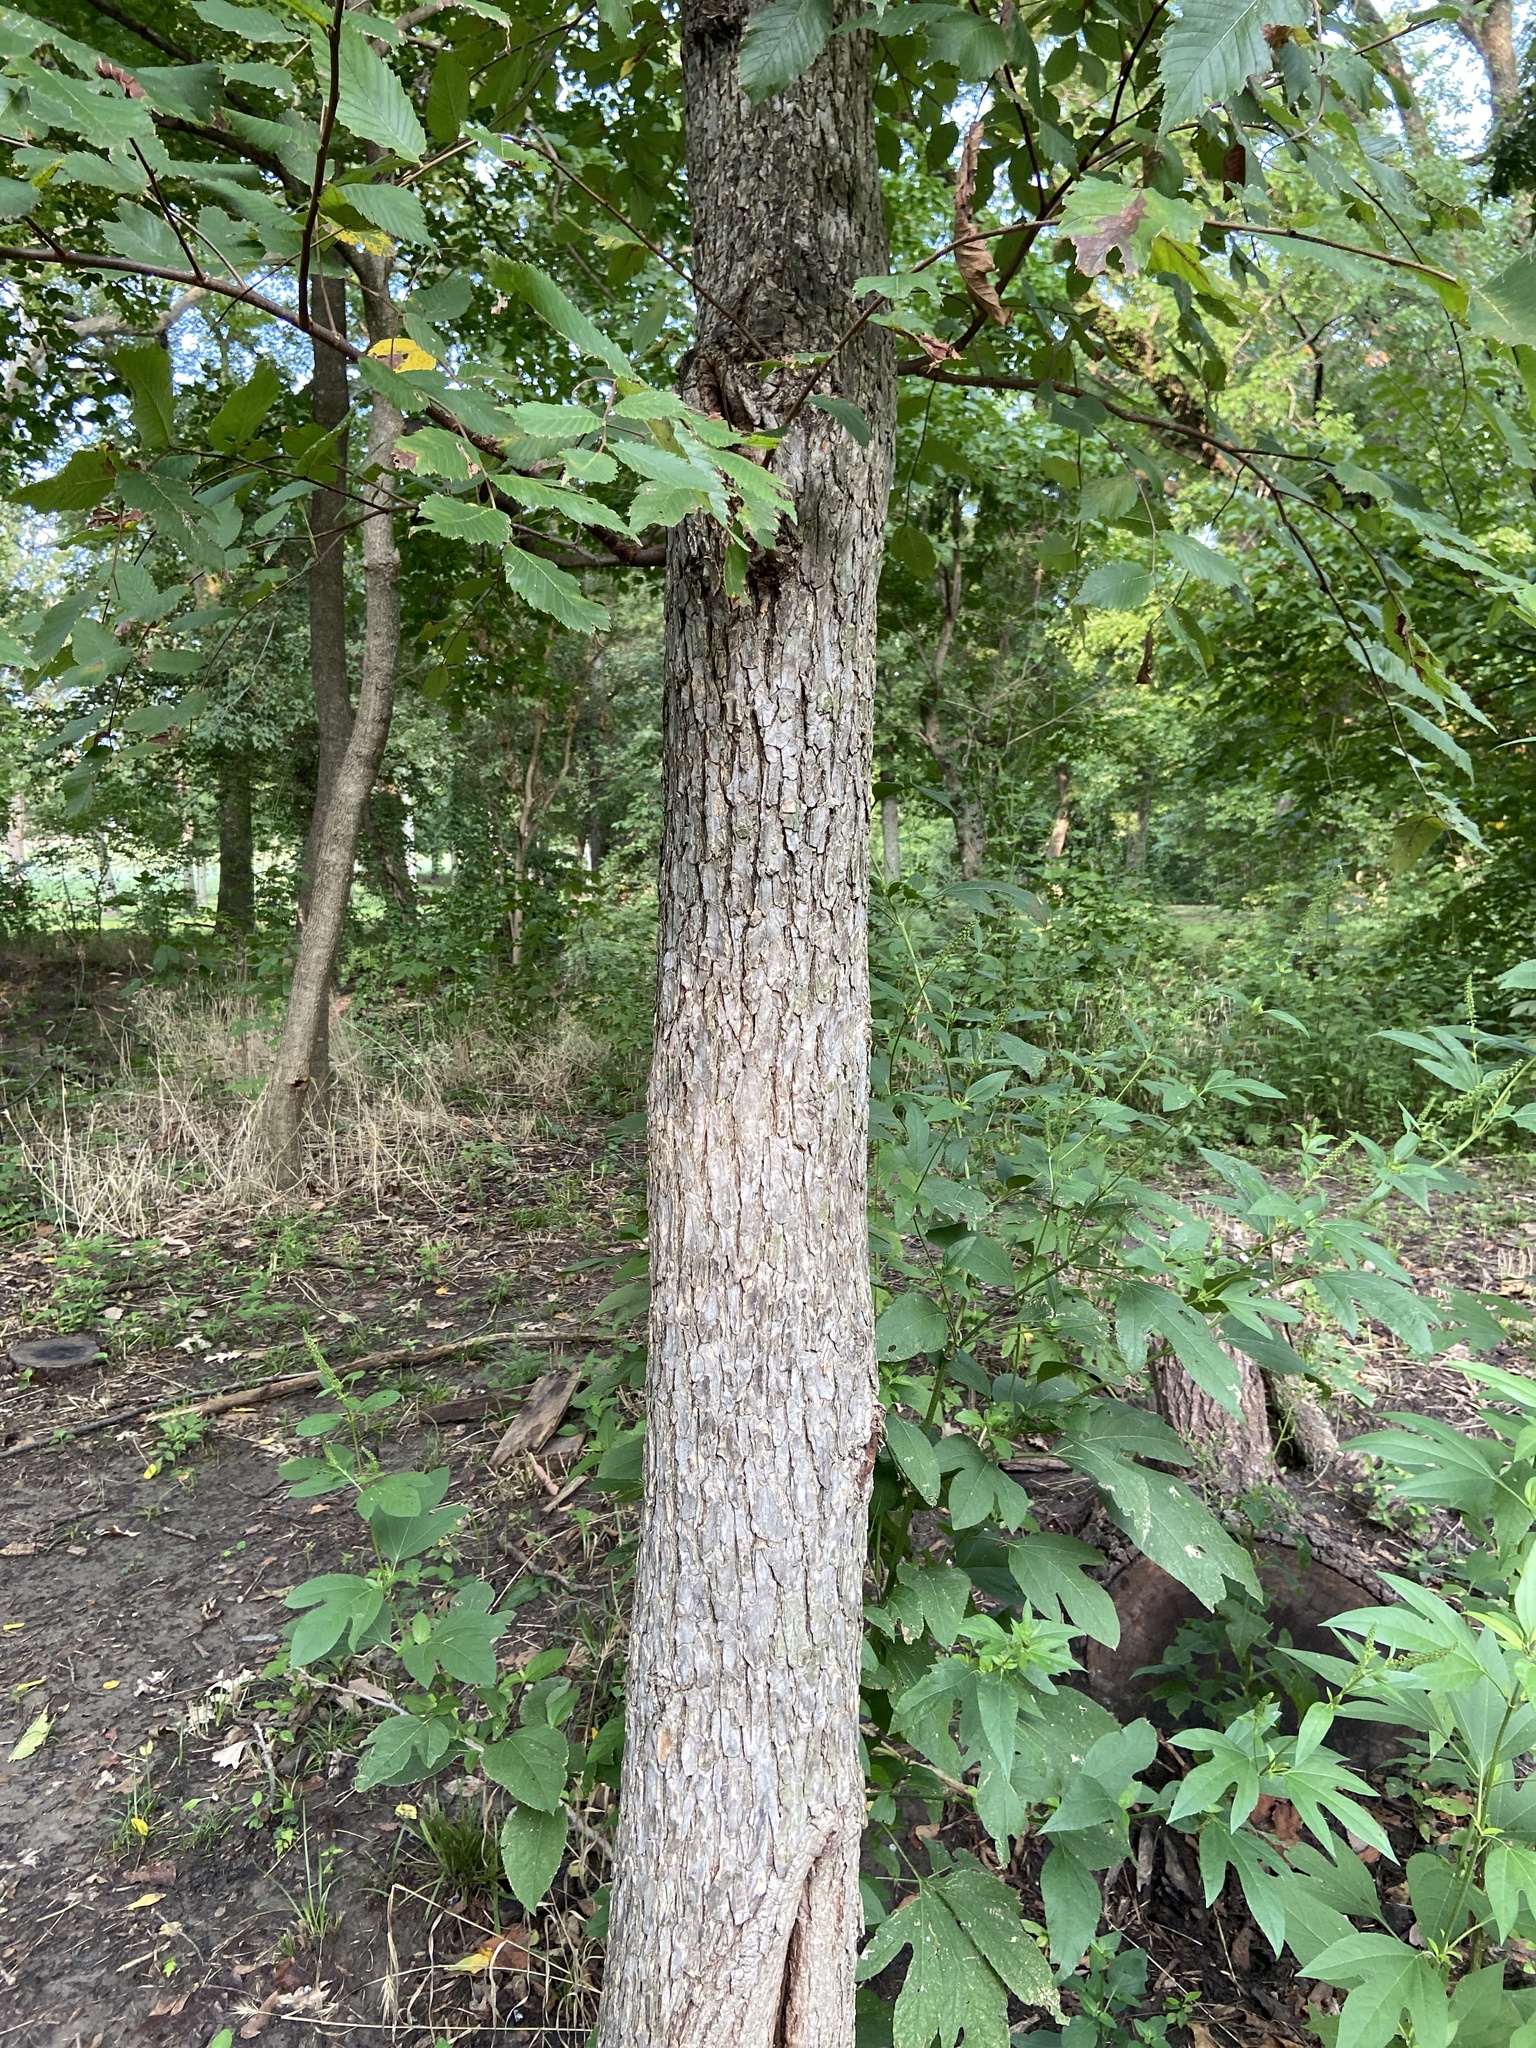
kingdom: Plantae
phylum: Tracheophyta
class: Magnoliopsida
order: Rosales
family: Ulmaceae
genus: Ulmus
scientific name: Ulmus americana
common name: American elm
